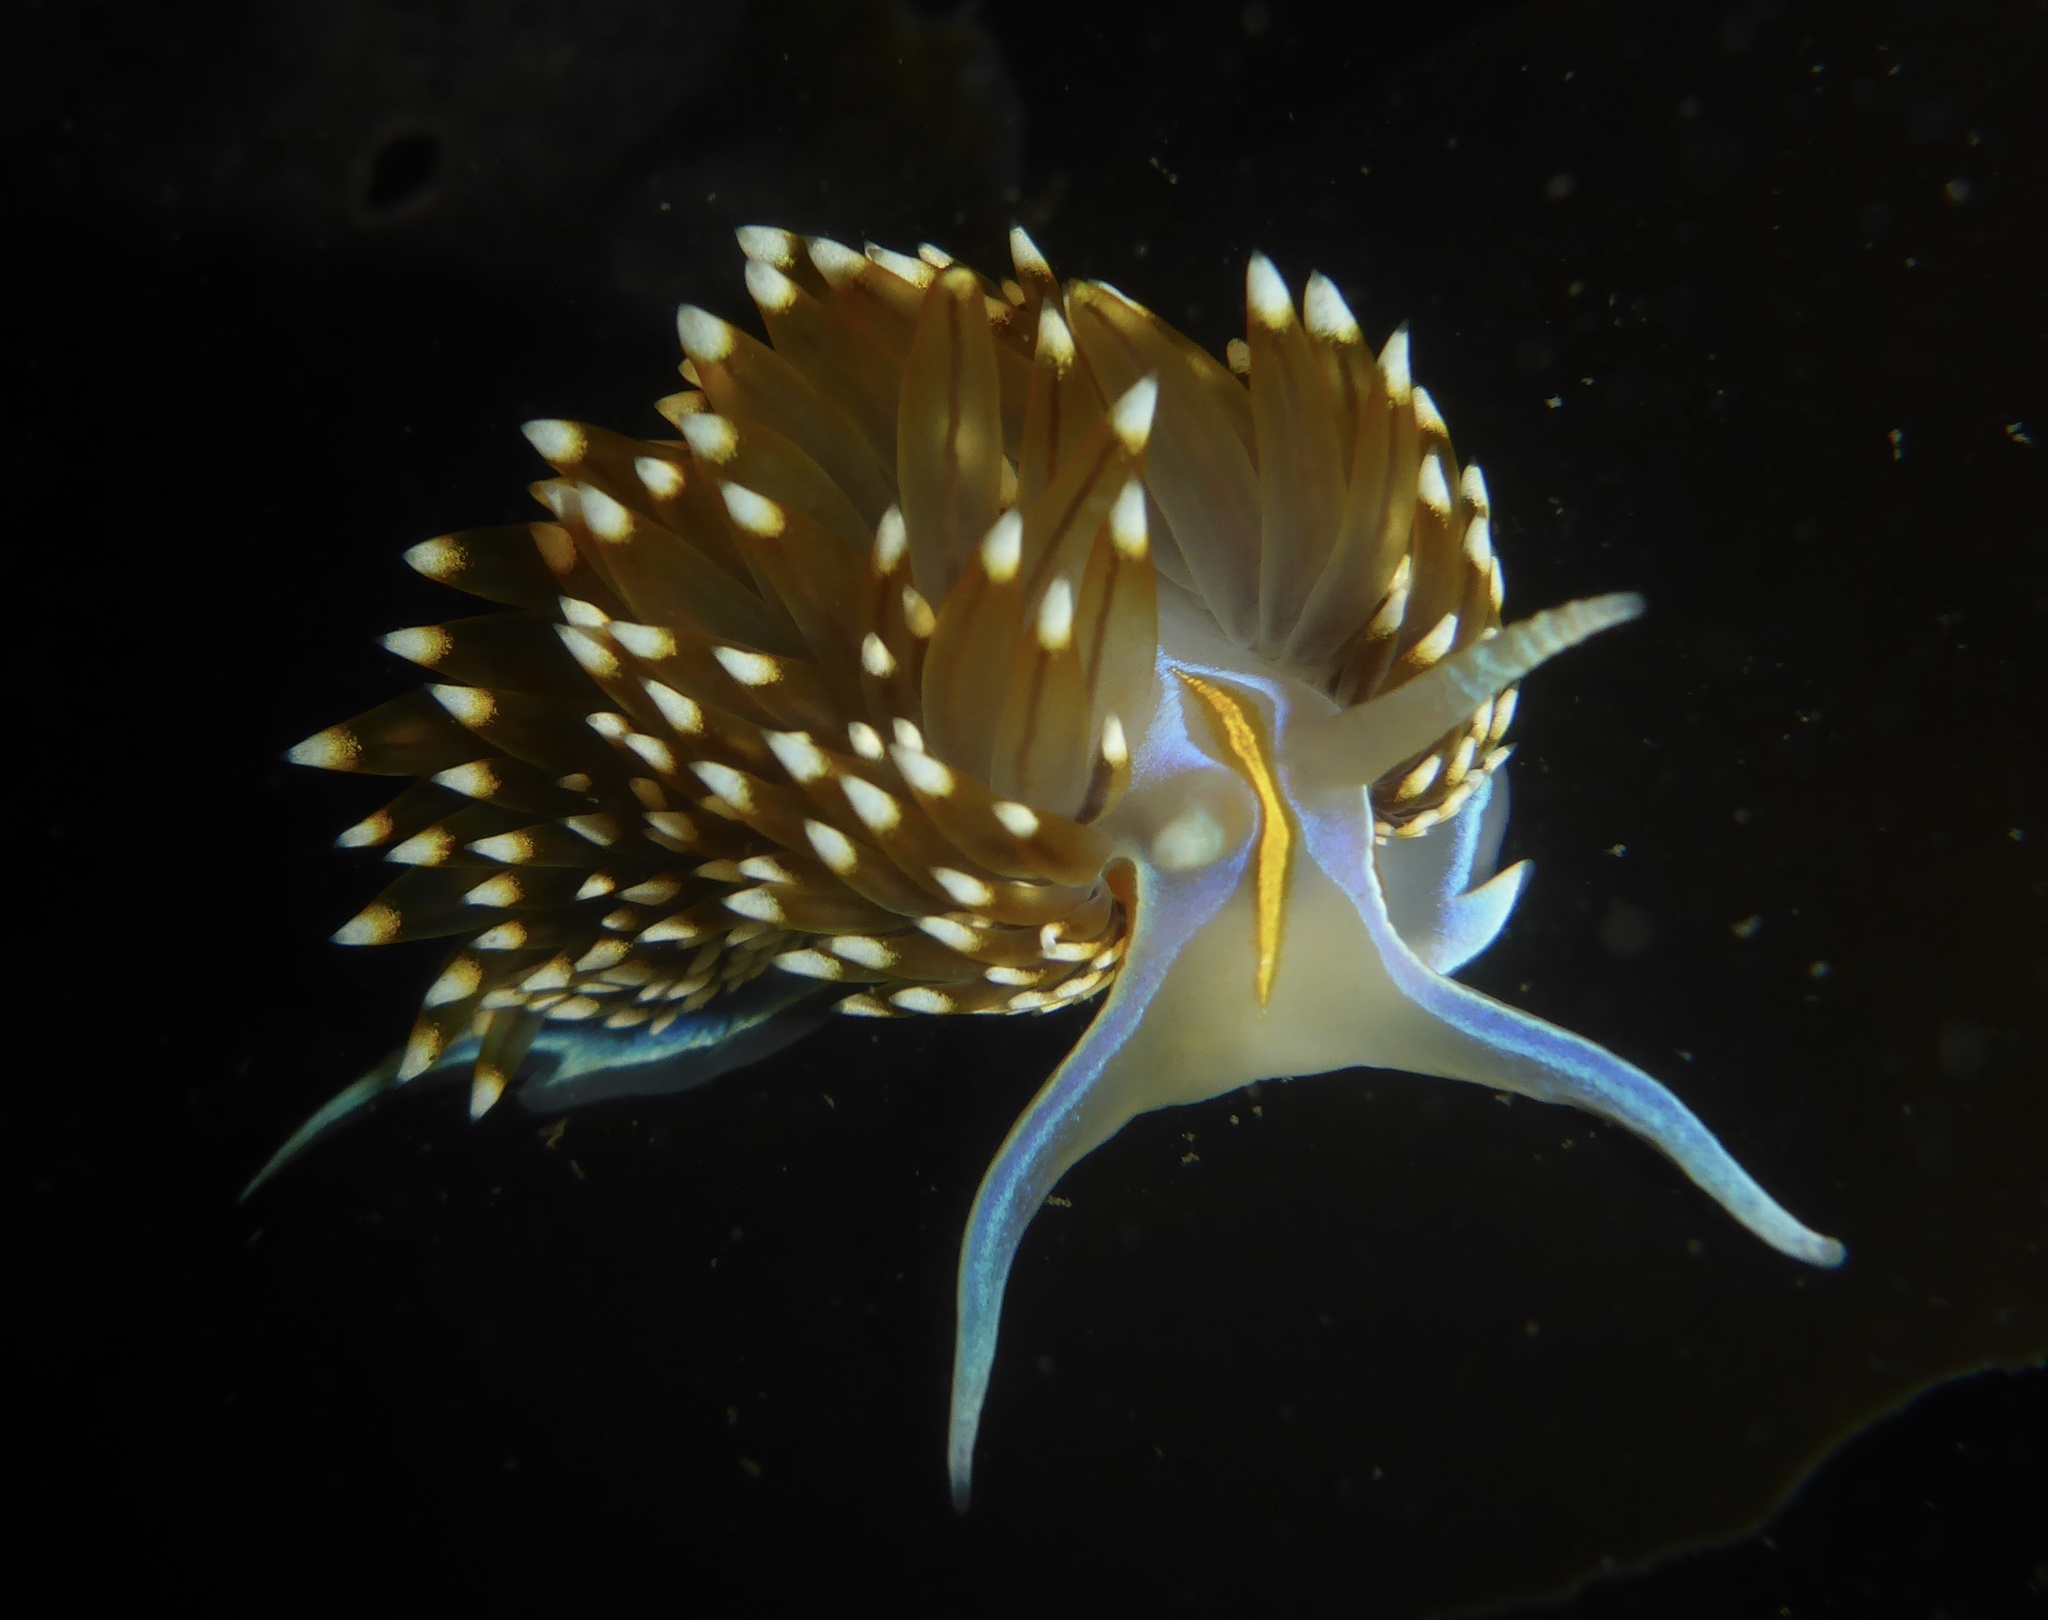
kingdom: Animalia
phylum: Mollusca
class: Gastropoda
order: Nudibranchia
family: Myrrhinidae
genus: Hermissenda
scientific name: Hermissenda opalescens
